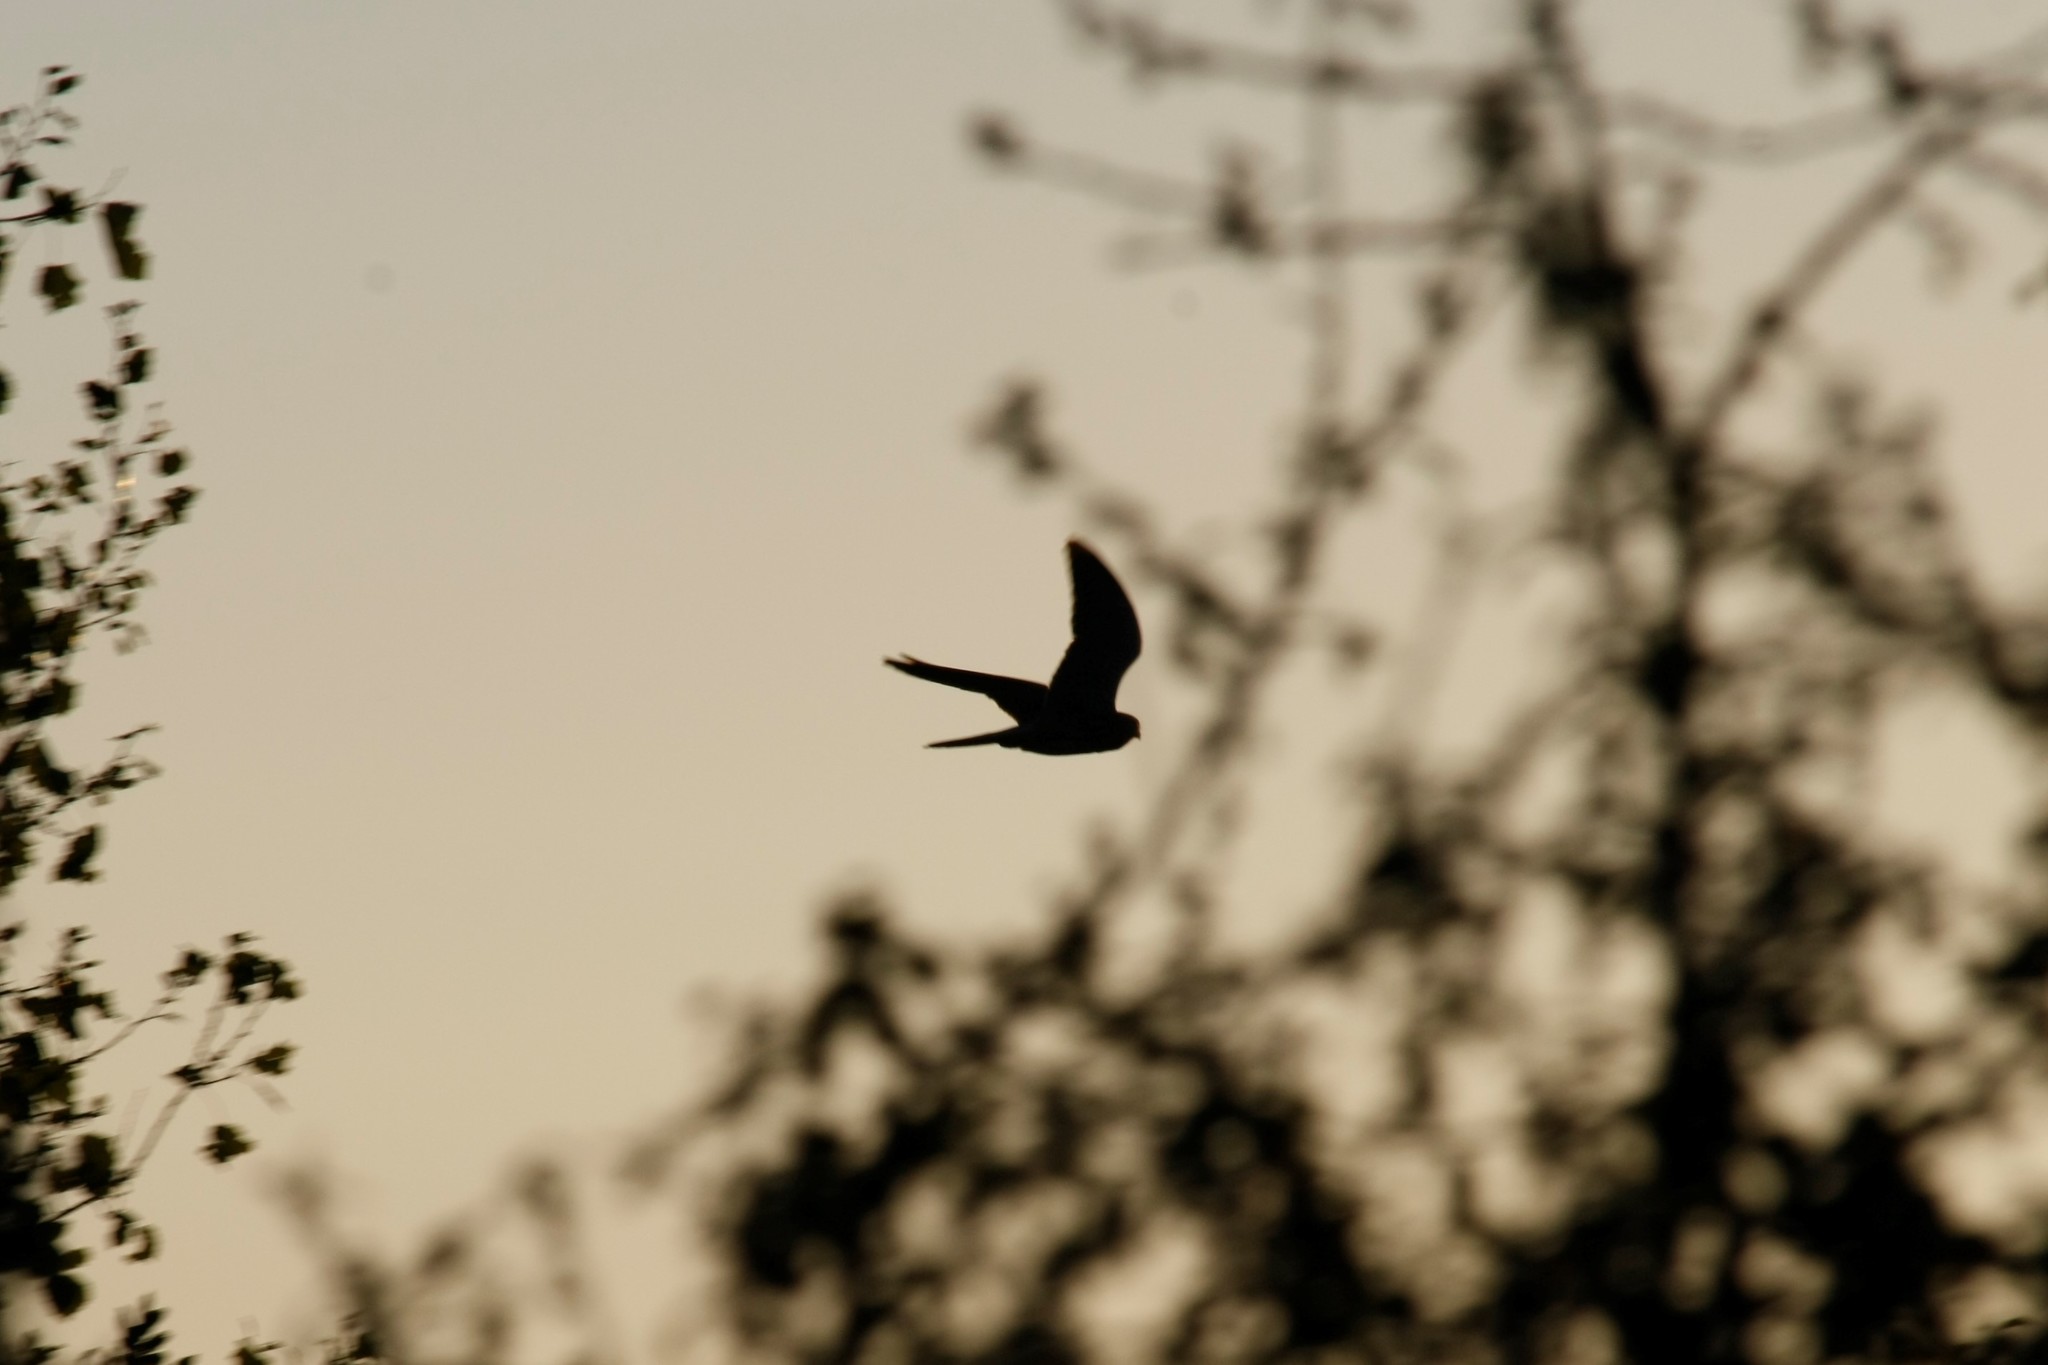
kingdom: Animalia
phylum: Chordata
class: Aves
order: Falconiformes
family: Falconidae
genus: Falco
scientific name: Falco tinnunculus
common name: Common kestrel
